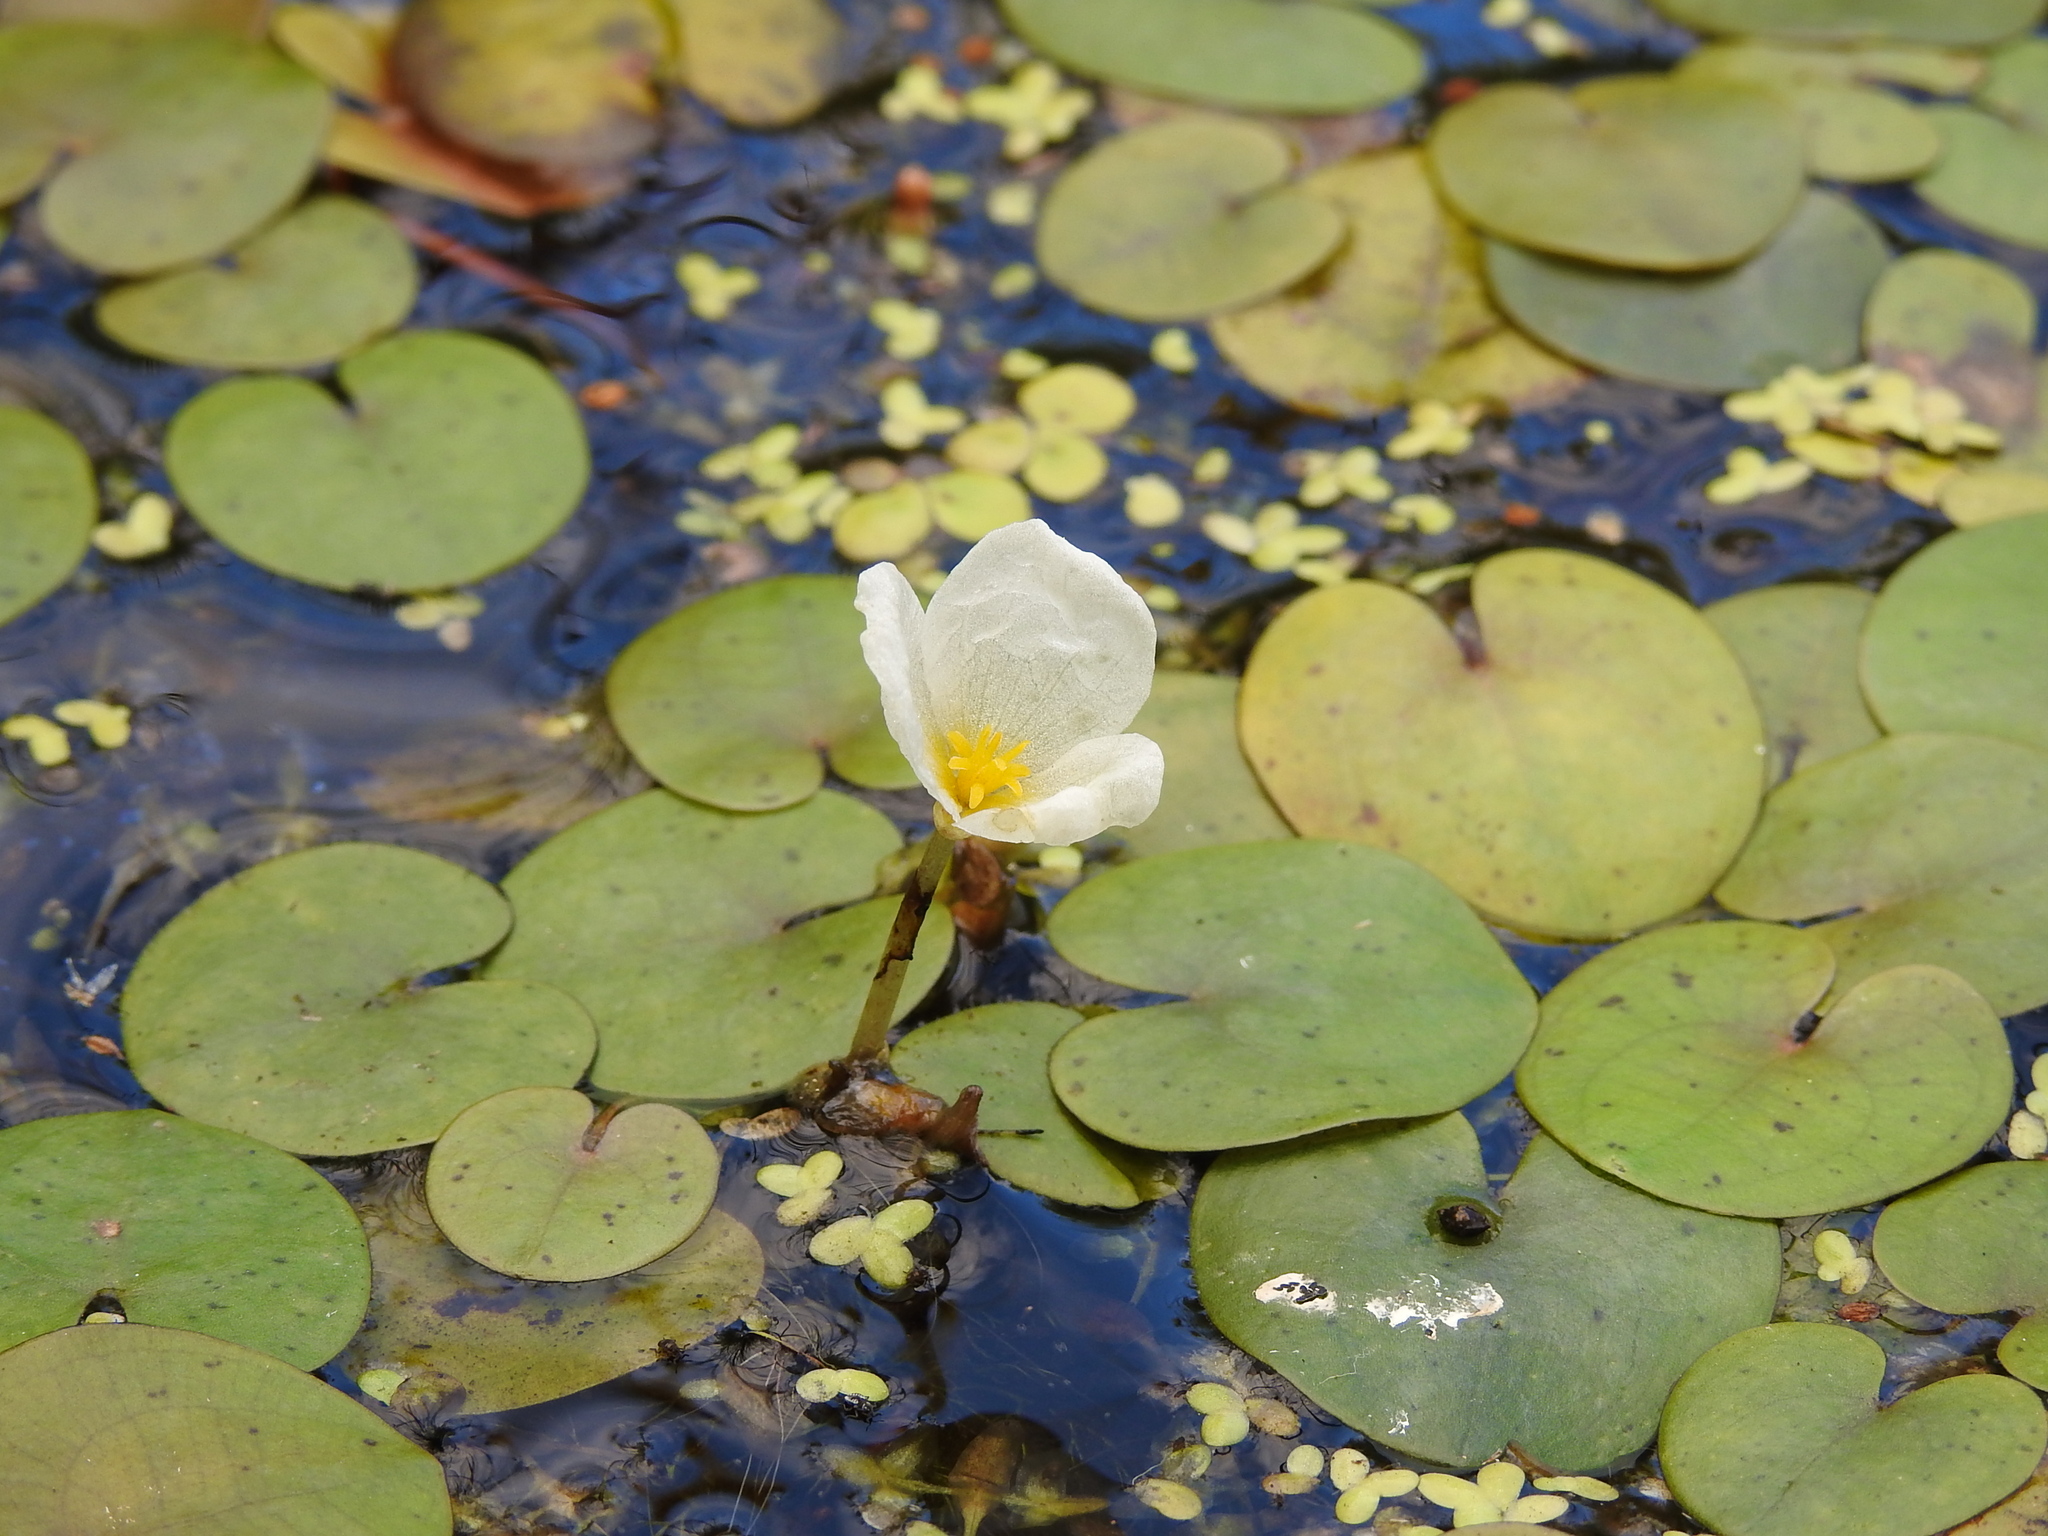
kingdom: Plantae
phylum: Tracheophyta
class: Liliopsida
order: Alismatales
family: Hydrocharitaceae
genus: Hydrocharis
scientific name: Hydrocharis morsus-ranae
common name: Frogbit
